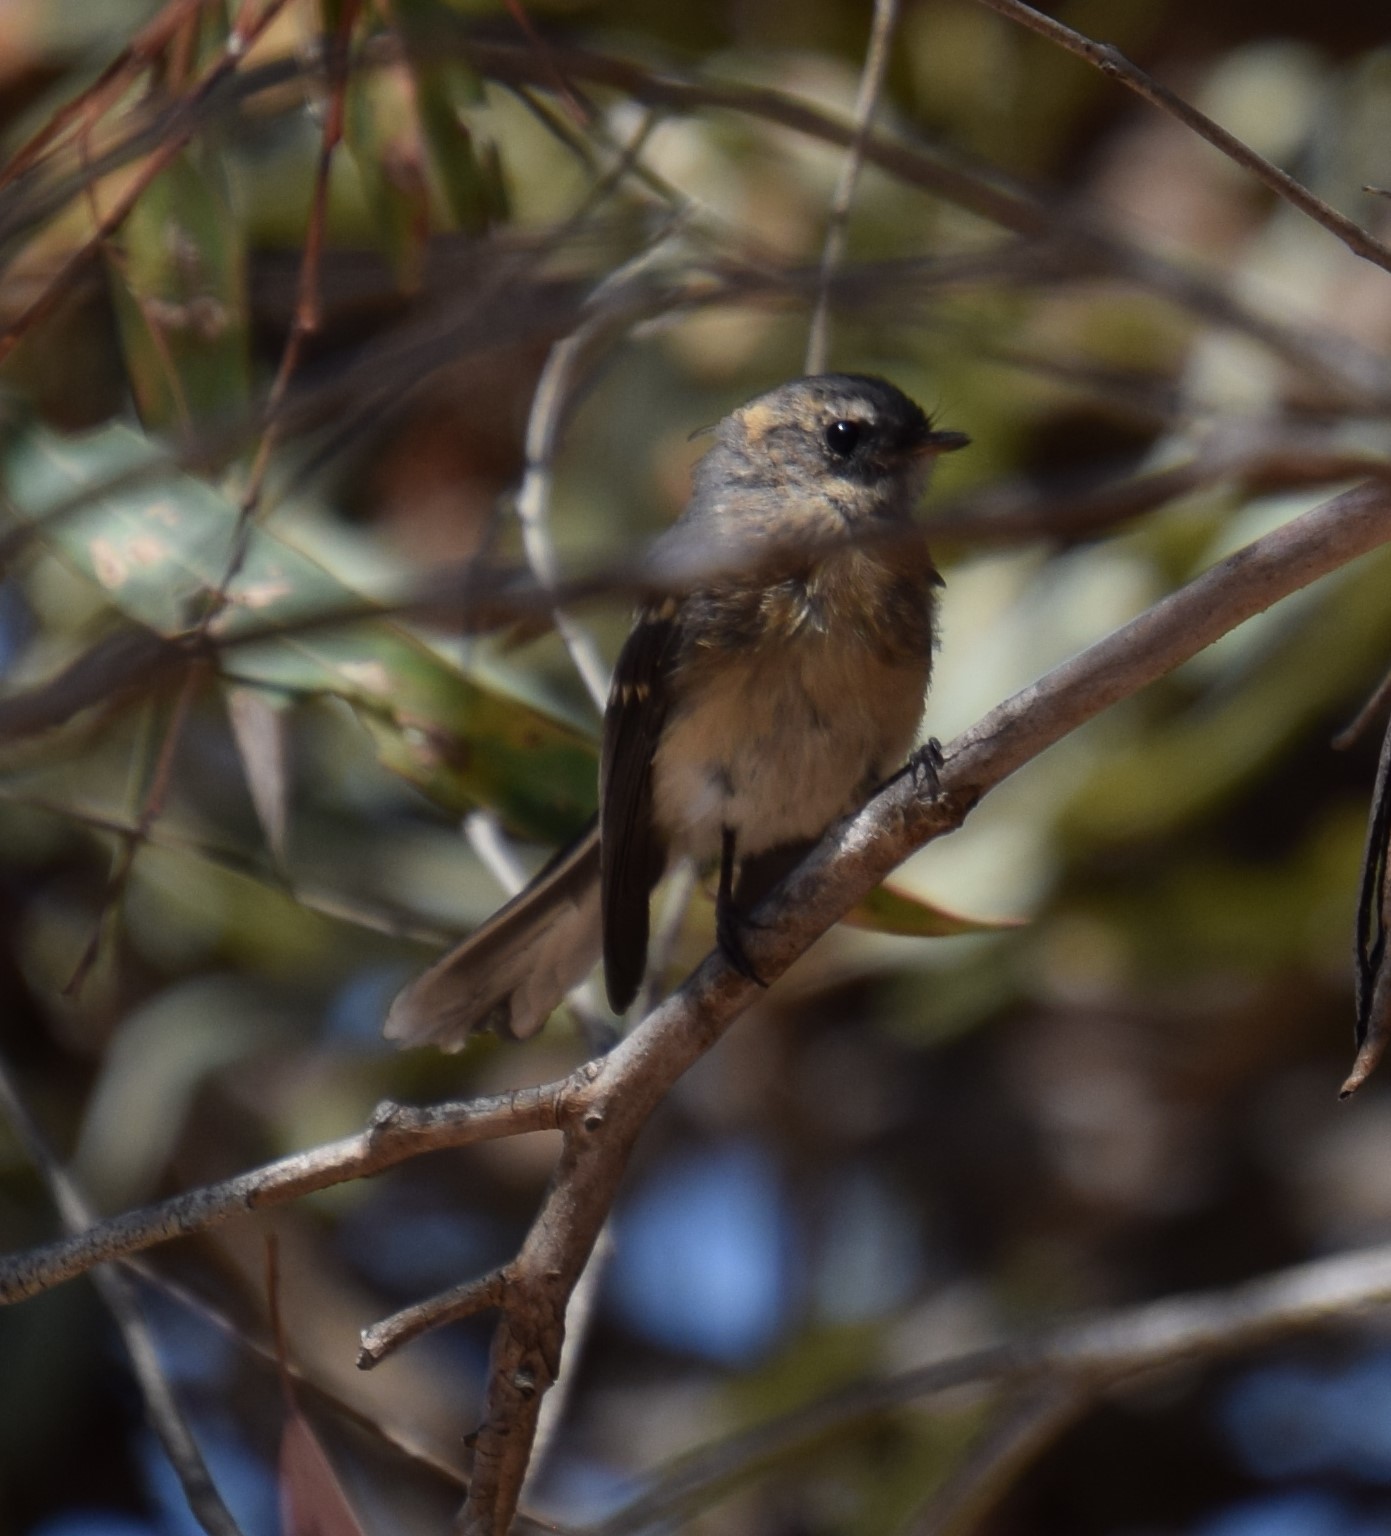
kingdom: Animalia
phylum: Chordata
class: Aves
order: Passeriformes
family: Rhipiduridae
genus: Rhipidura
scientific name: Rhipidura albiscapa
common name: Grey fantail
